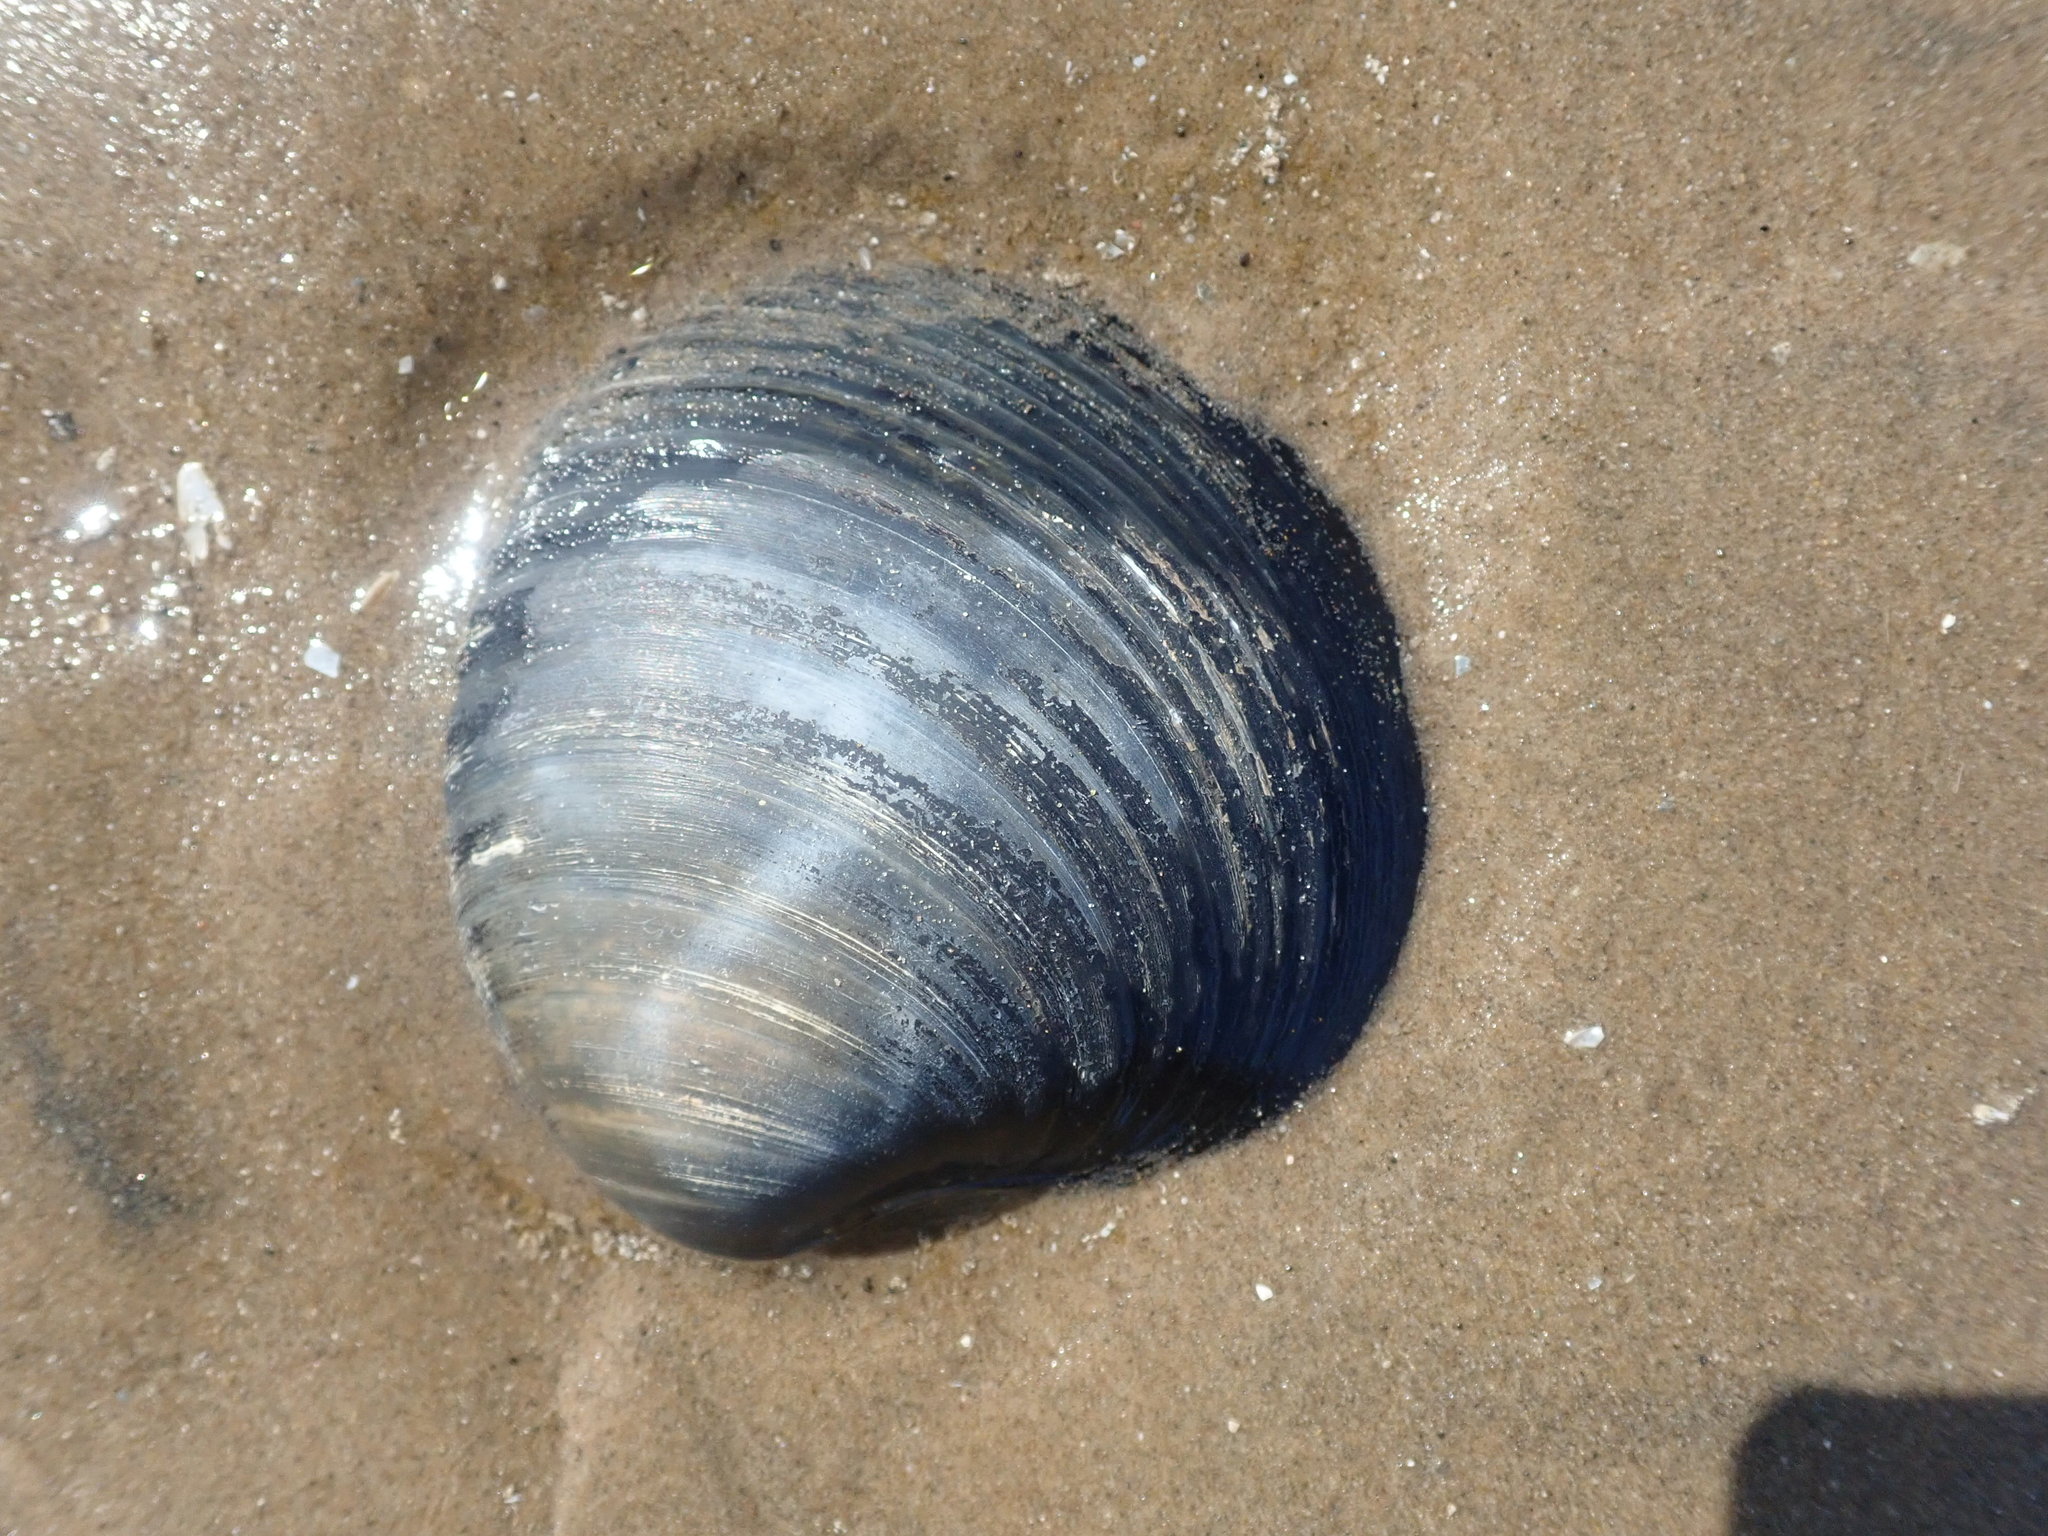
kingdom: Animalia
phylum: Mollusca
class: Bivalvia
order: Venerida
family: Arcticidae
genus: Arctica
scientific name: Arctica islandica
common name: Icelandic cyprine
